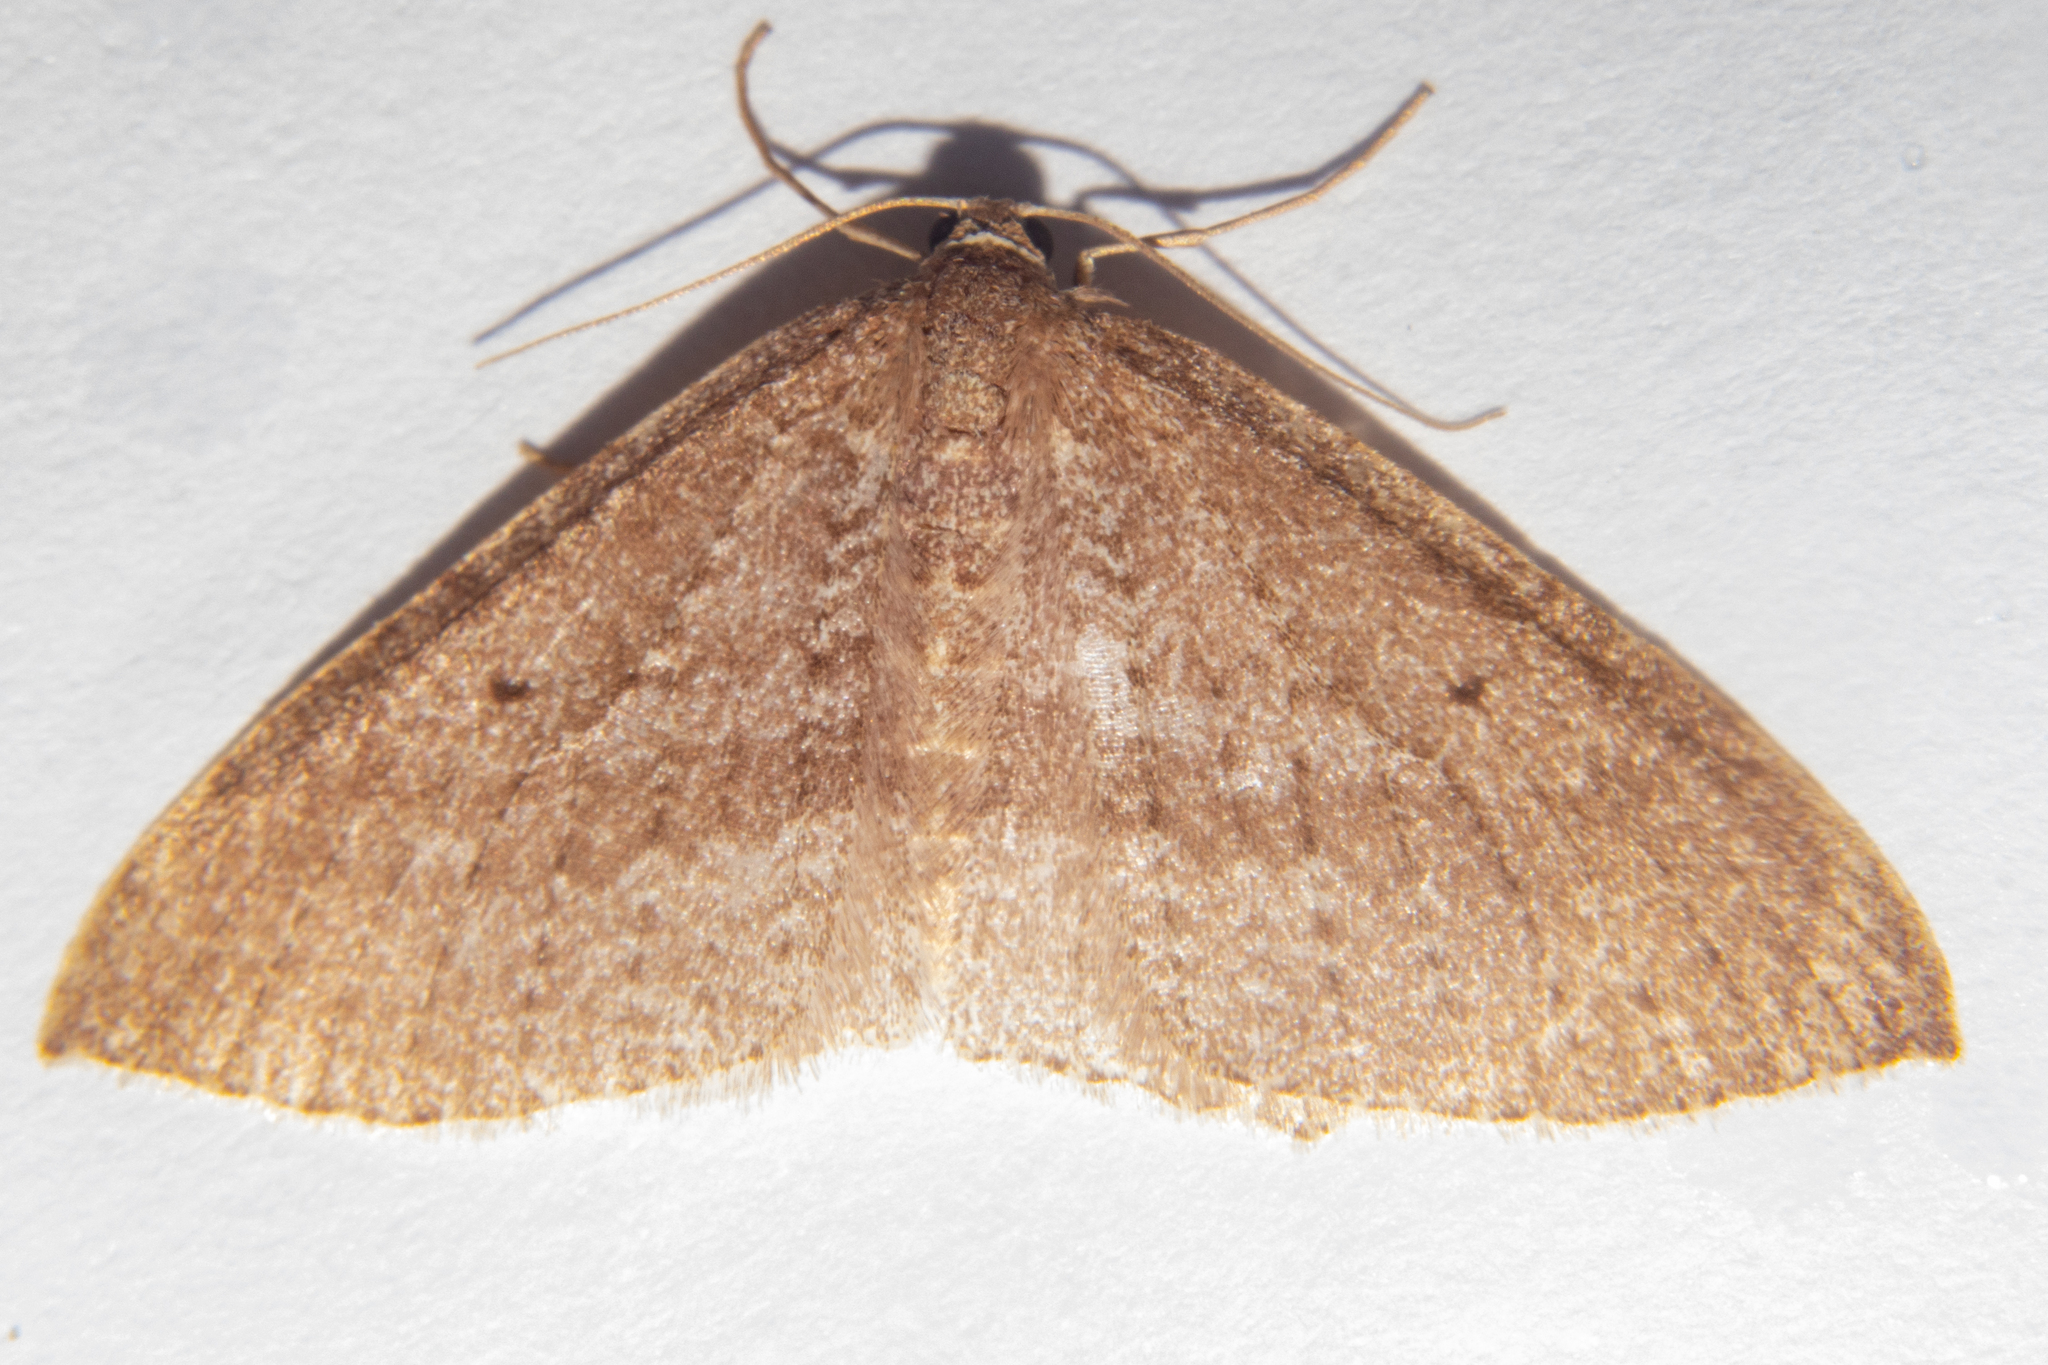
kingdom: Animalia
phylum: Arthropoda
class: Insecta
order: Lepidoptera
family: Geometridae
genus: Poecilasthena
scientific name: Poecilasthena subpurpureata
